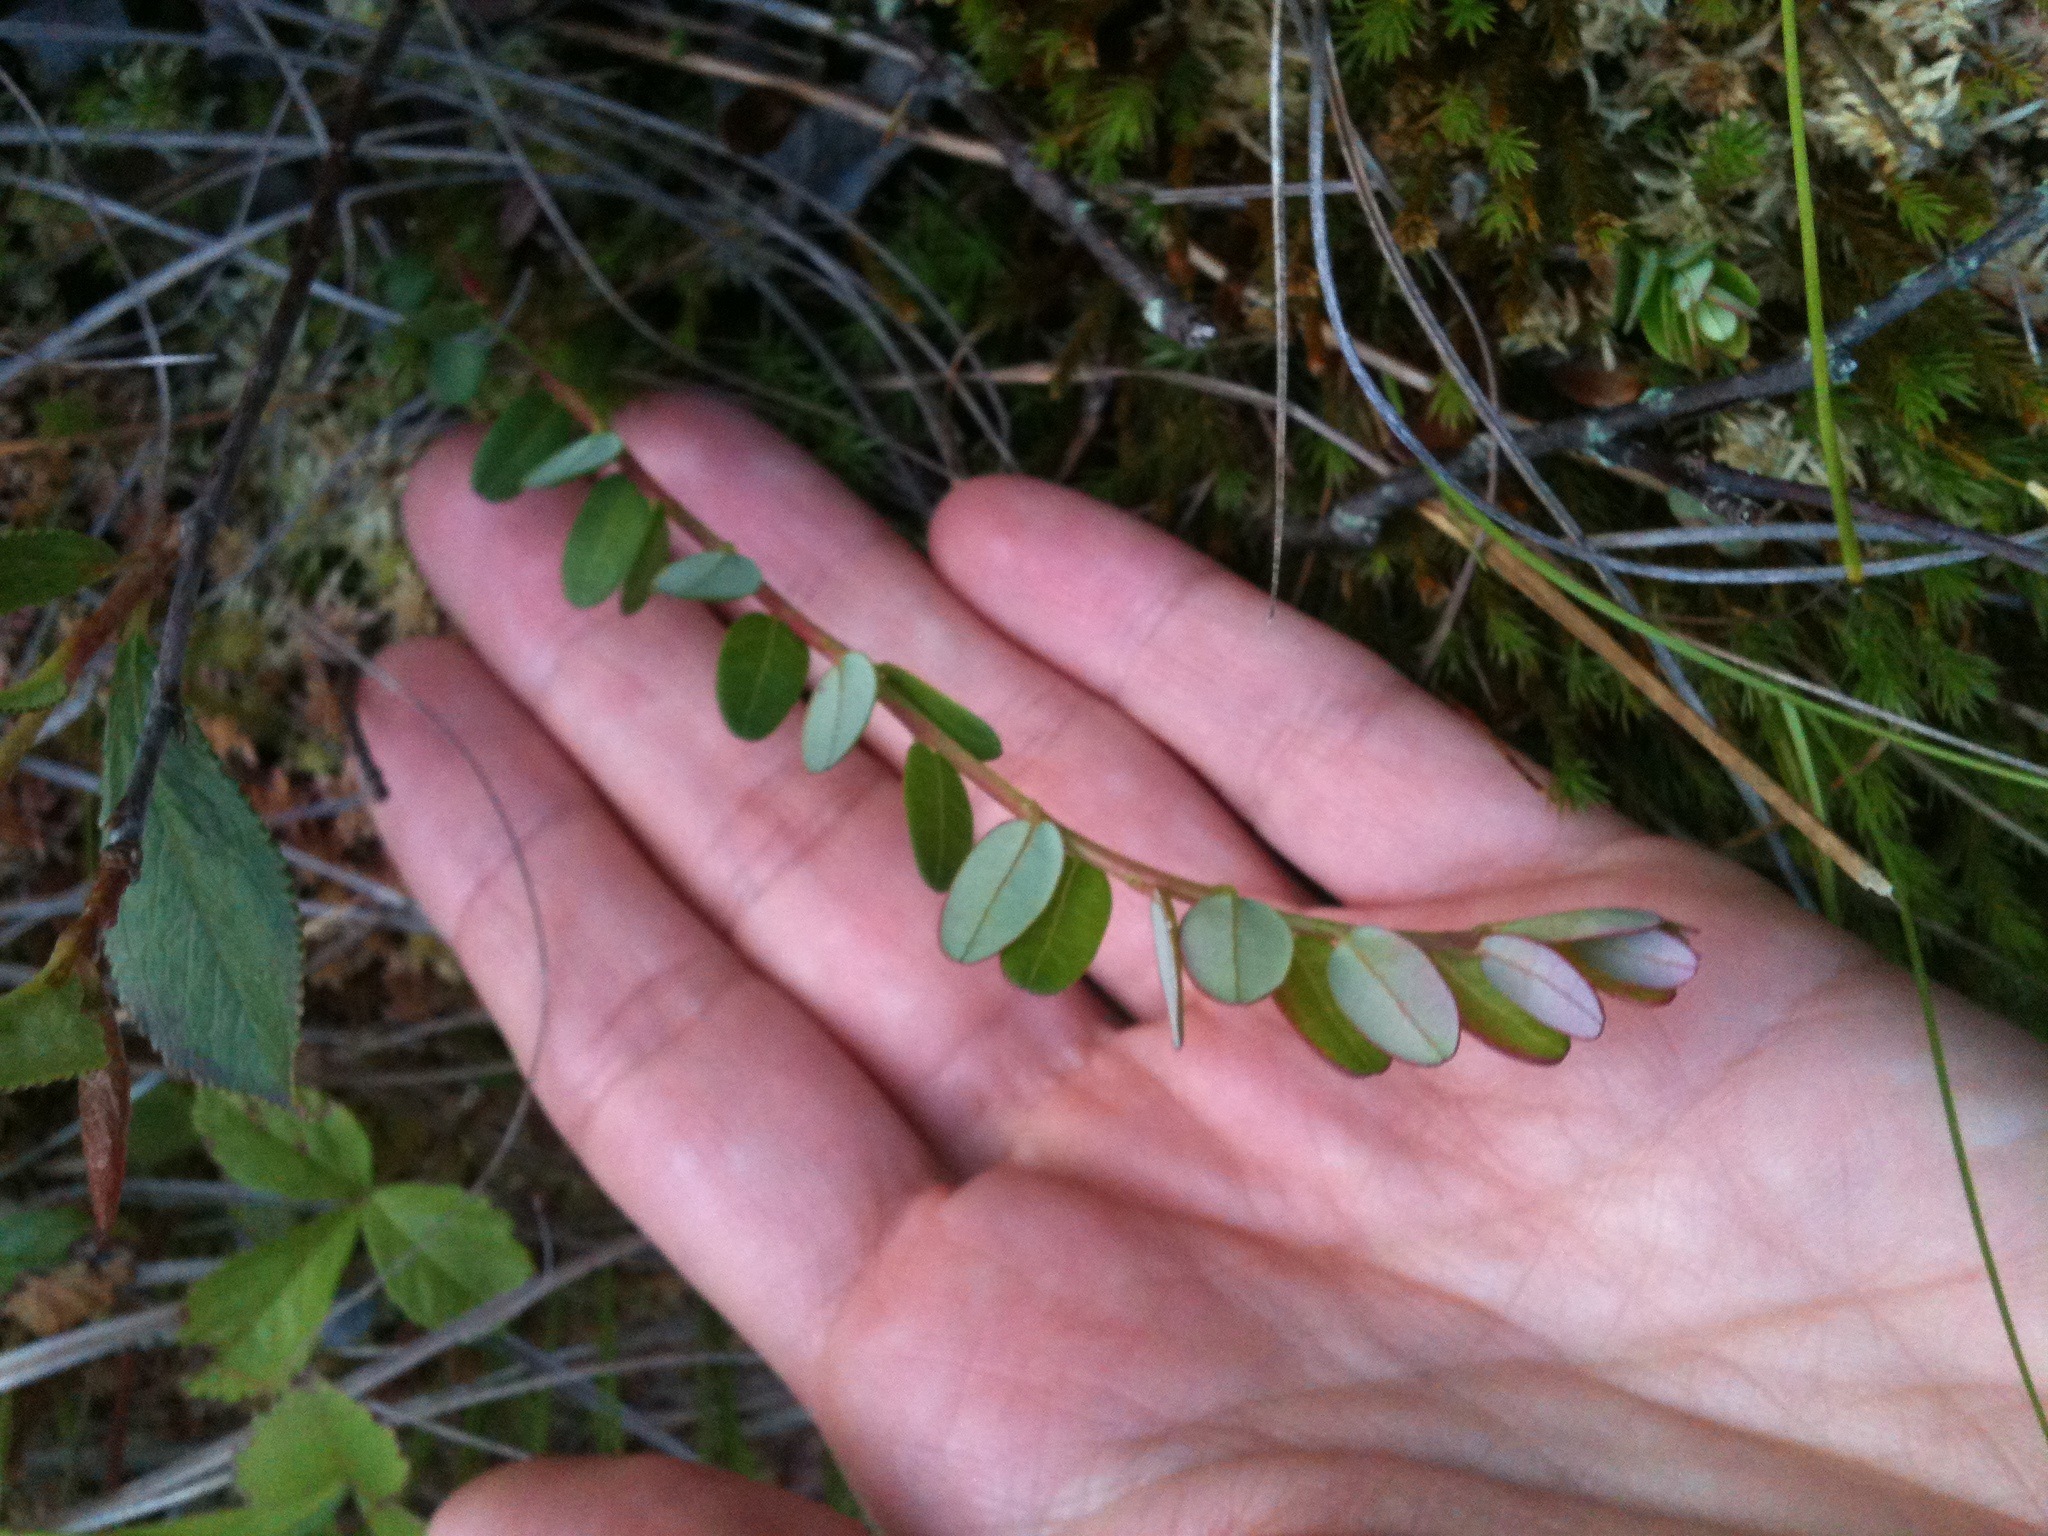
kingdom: Plantae
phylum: Tracheophyta
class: Magnoliopsida
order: Ericales
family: Ericaceae
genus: Vaccinium
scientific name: Vaccinium macrocarpon
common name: American cranberry
